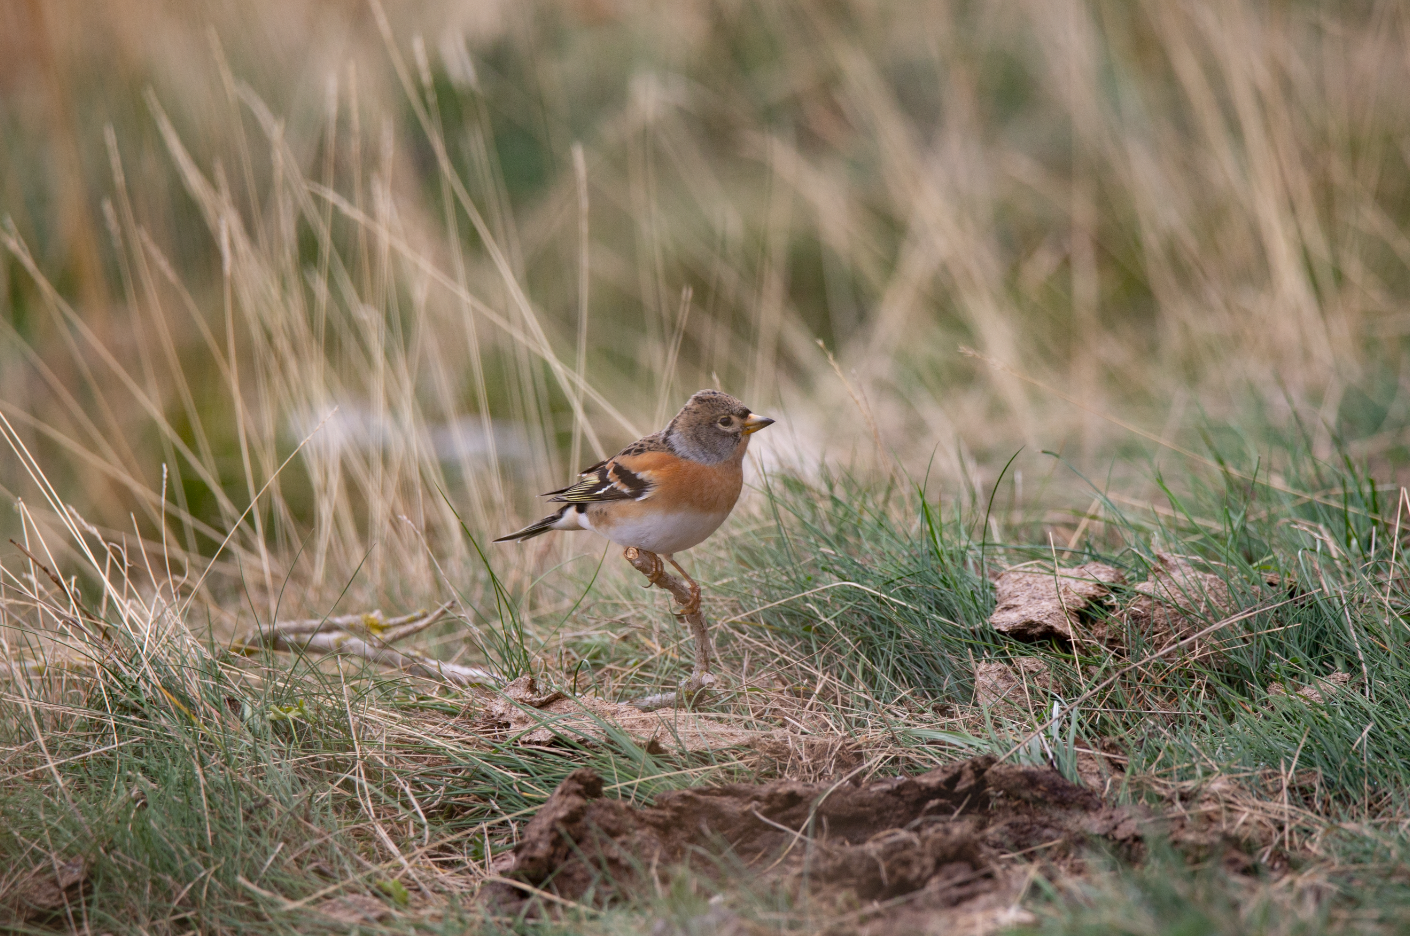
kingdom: Animalia
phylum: Chordata
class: Aves
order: Passeriformes
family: Fringillidae
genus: Fringilla
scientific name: Fringilla montifringilla
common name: Brambling
